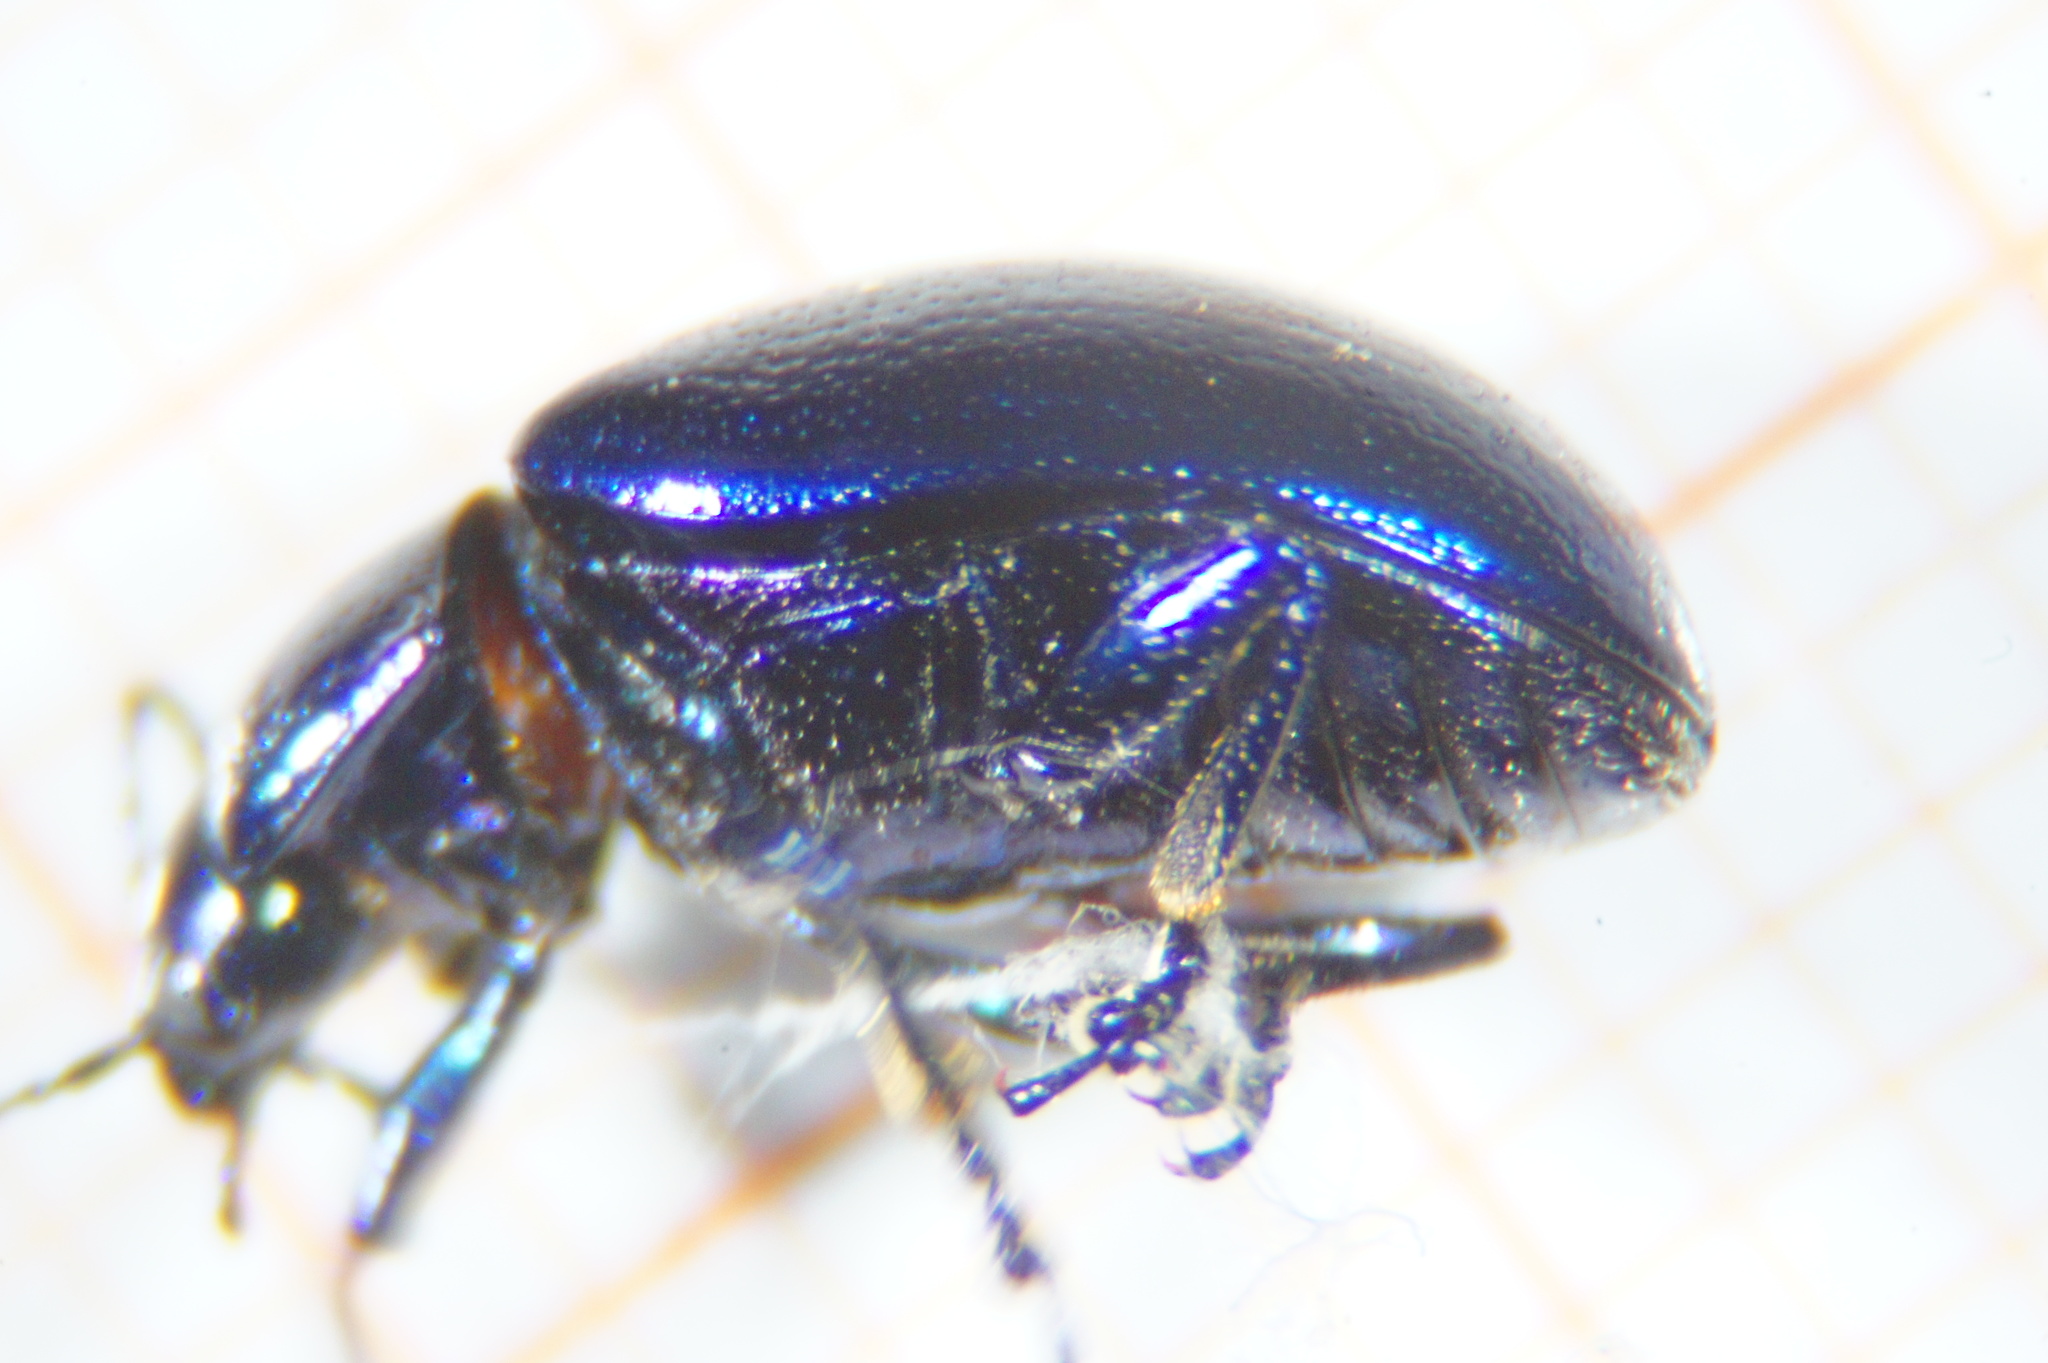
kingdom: Animalia
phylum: Arthropoda
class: Insecta
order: Coleoptera
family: Chrysomelidae
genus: Chrysolina
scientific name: Chrysolina coerulans
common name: Blue mint beetle
